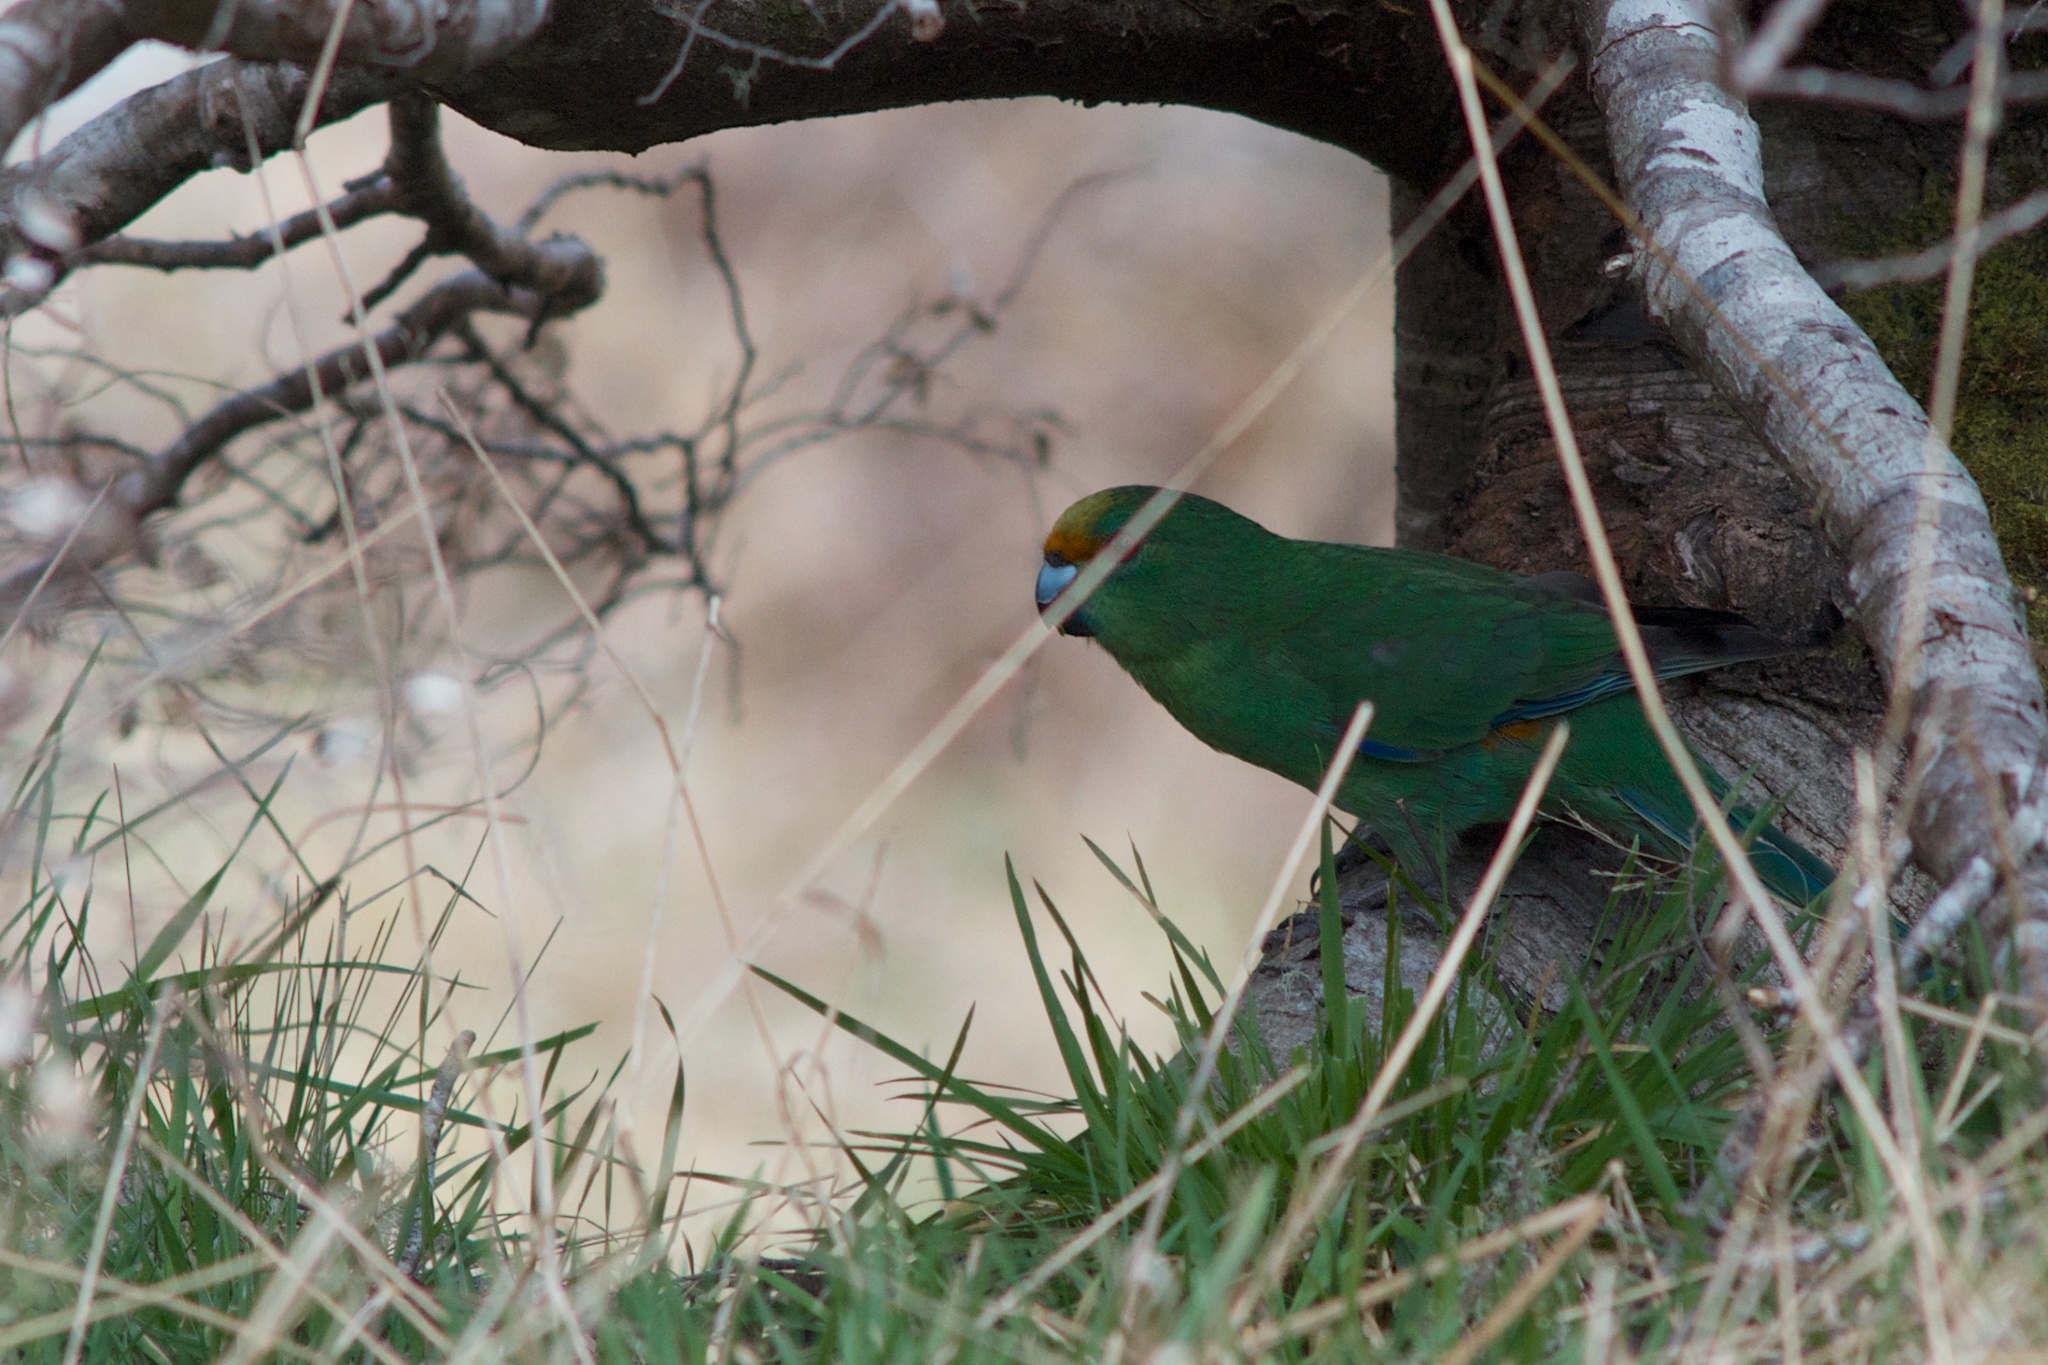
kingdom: Animalia
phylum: Chordata
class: Aves
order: Psittaciformes
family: Psittacidae
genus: Cyanoramphus
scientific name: Cyanoramphus malherbi
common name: Malherbe's parakeet
